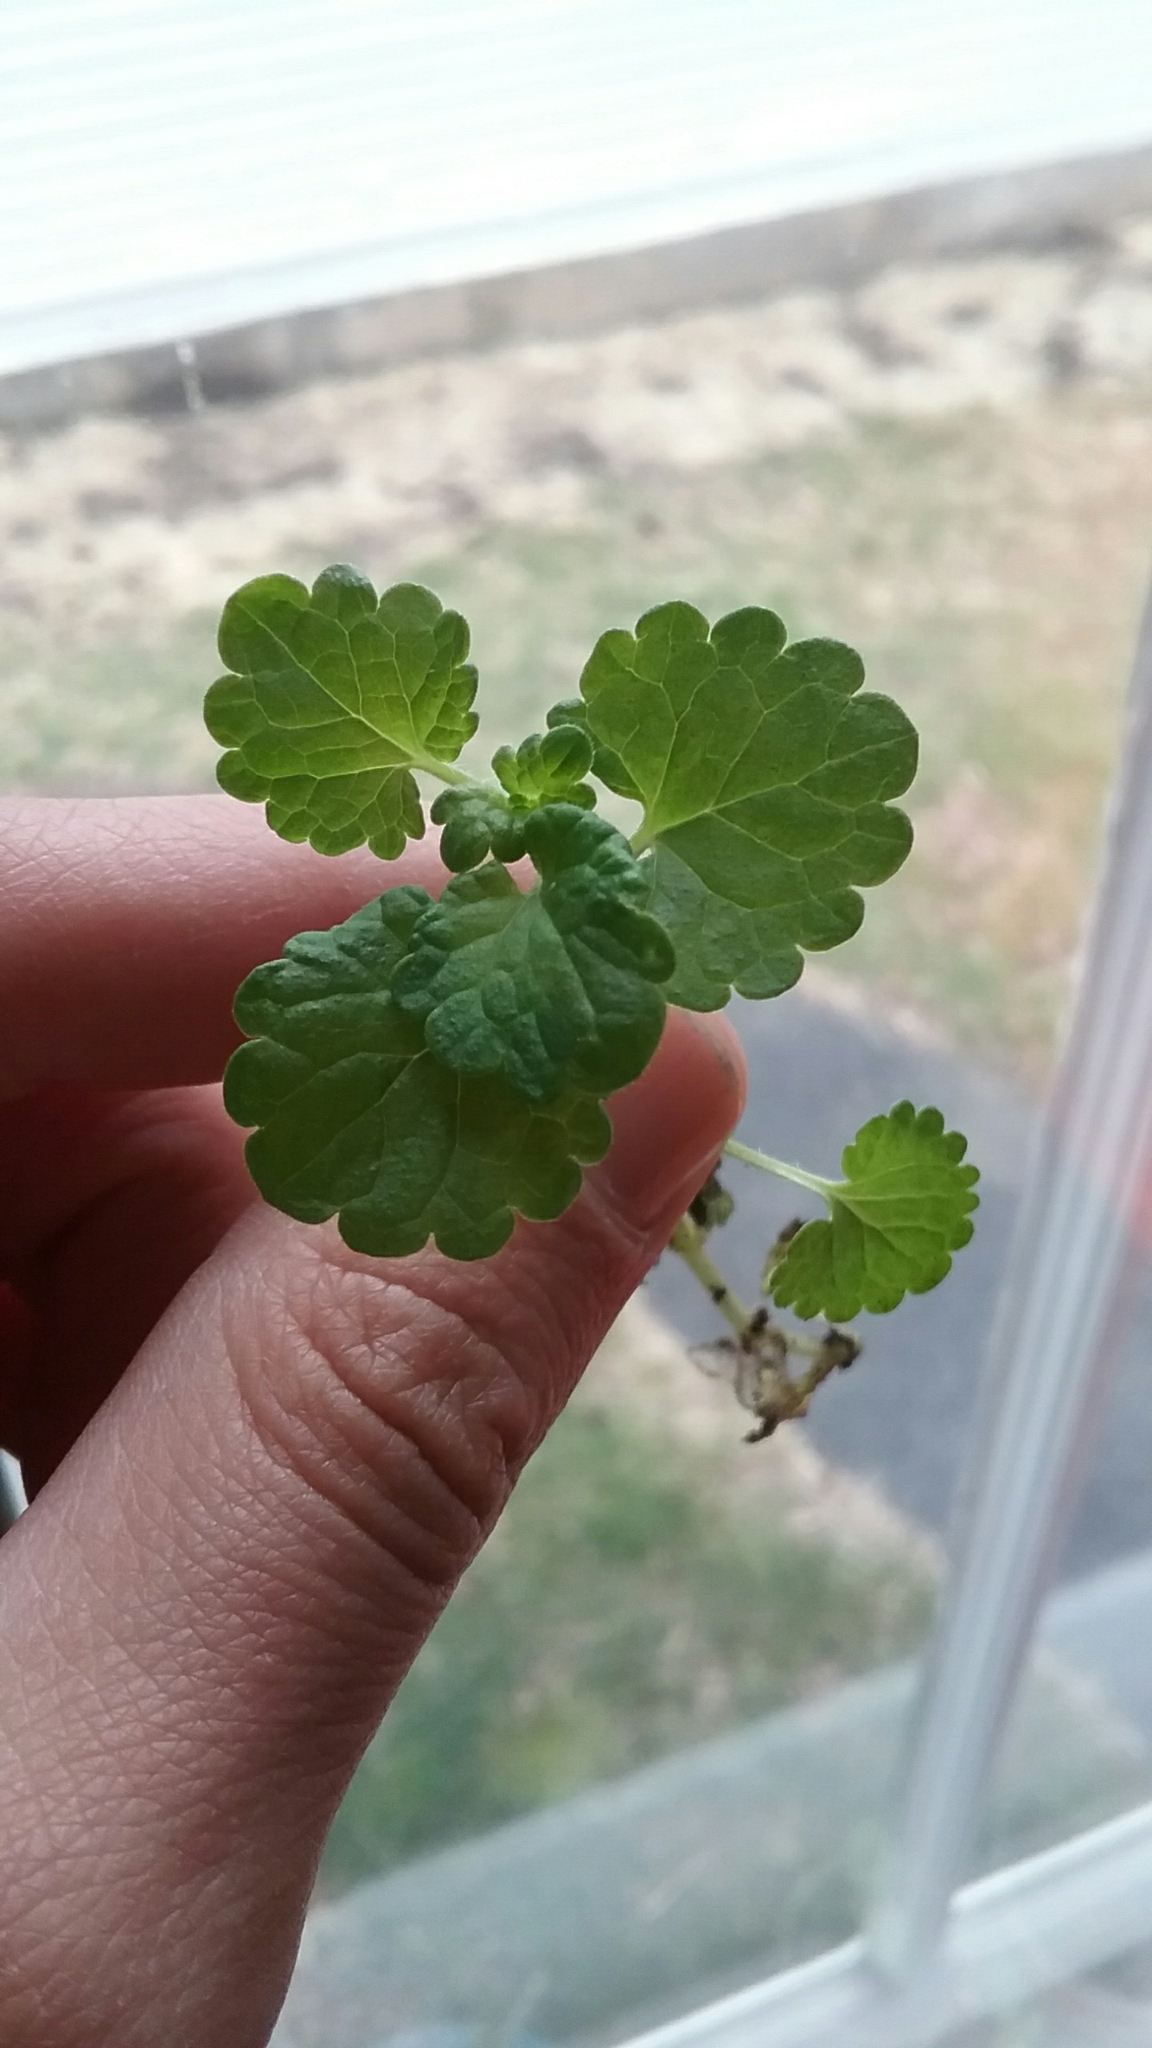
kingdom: Plantae
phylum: Tracheophyta
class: Magnoliopsida
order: Lamiales
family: Lamiaceae
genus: Glechoma
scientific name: Glechoma hederacea
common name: Ground ivy
